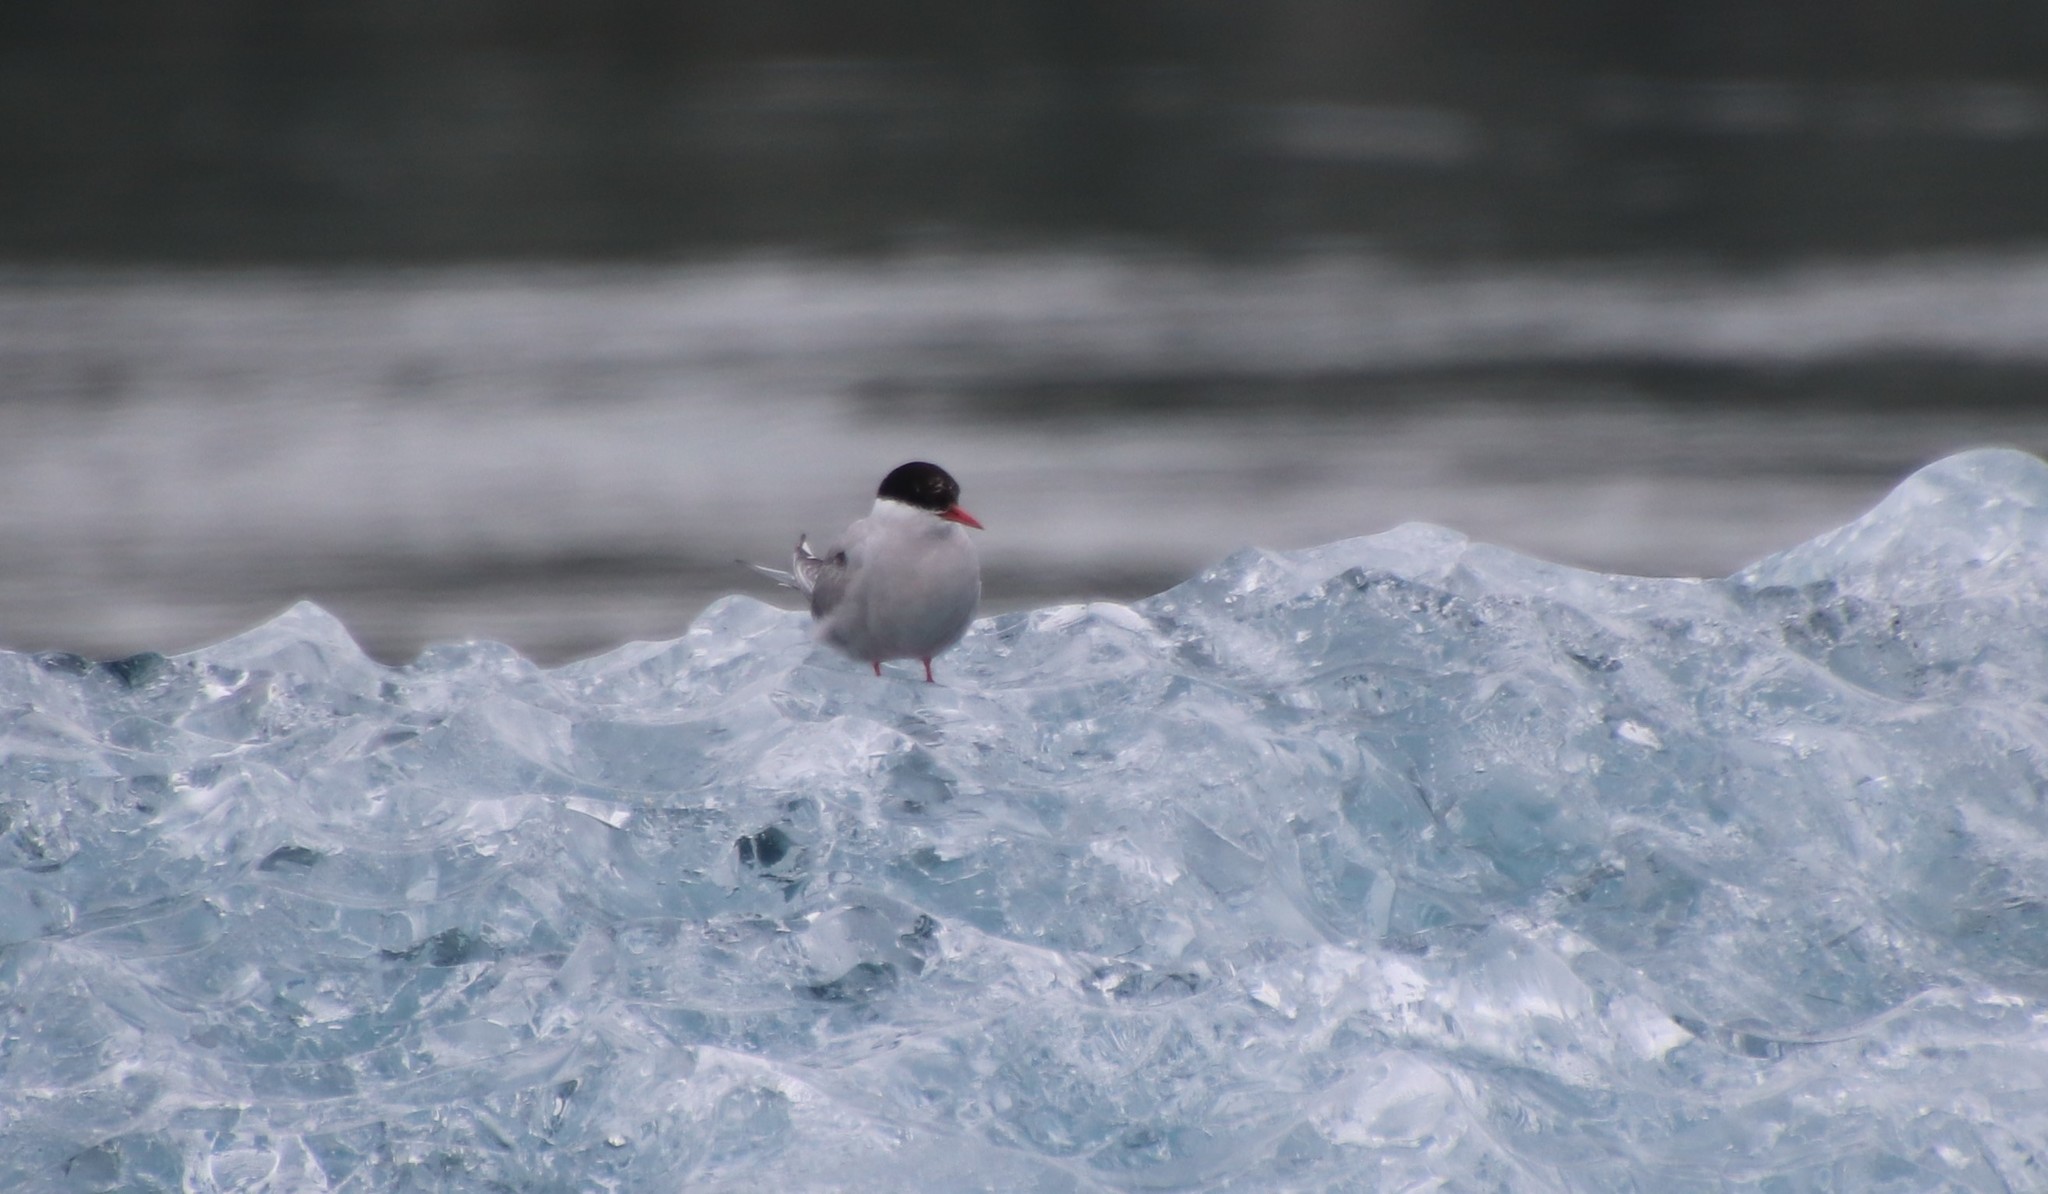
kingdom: Animalia
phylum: Chordata
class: Aves
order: Charadriiformes
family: Laridae
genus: Sterna
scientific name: Sterna paradisaea
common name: Arctic tern
